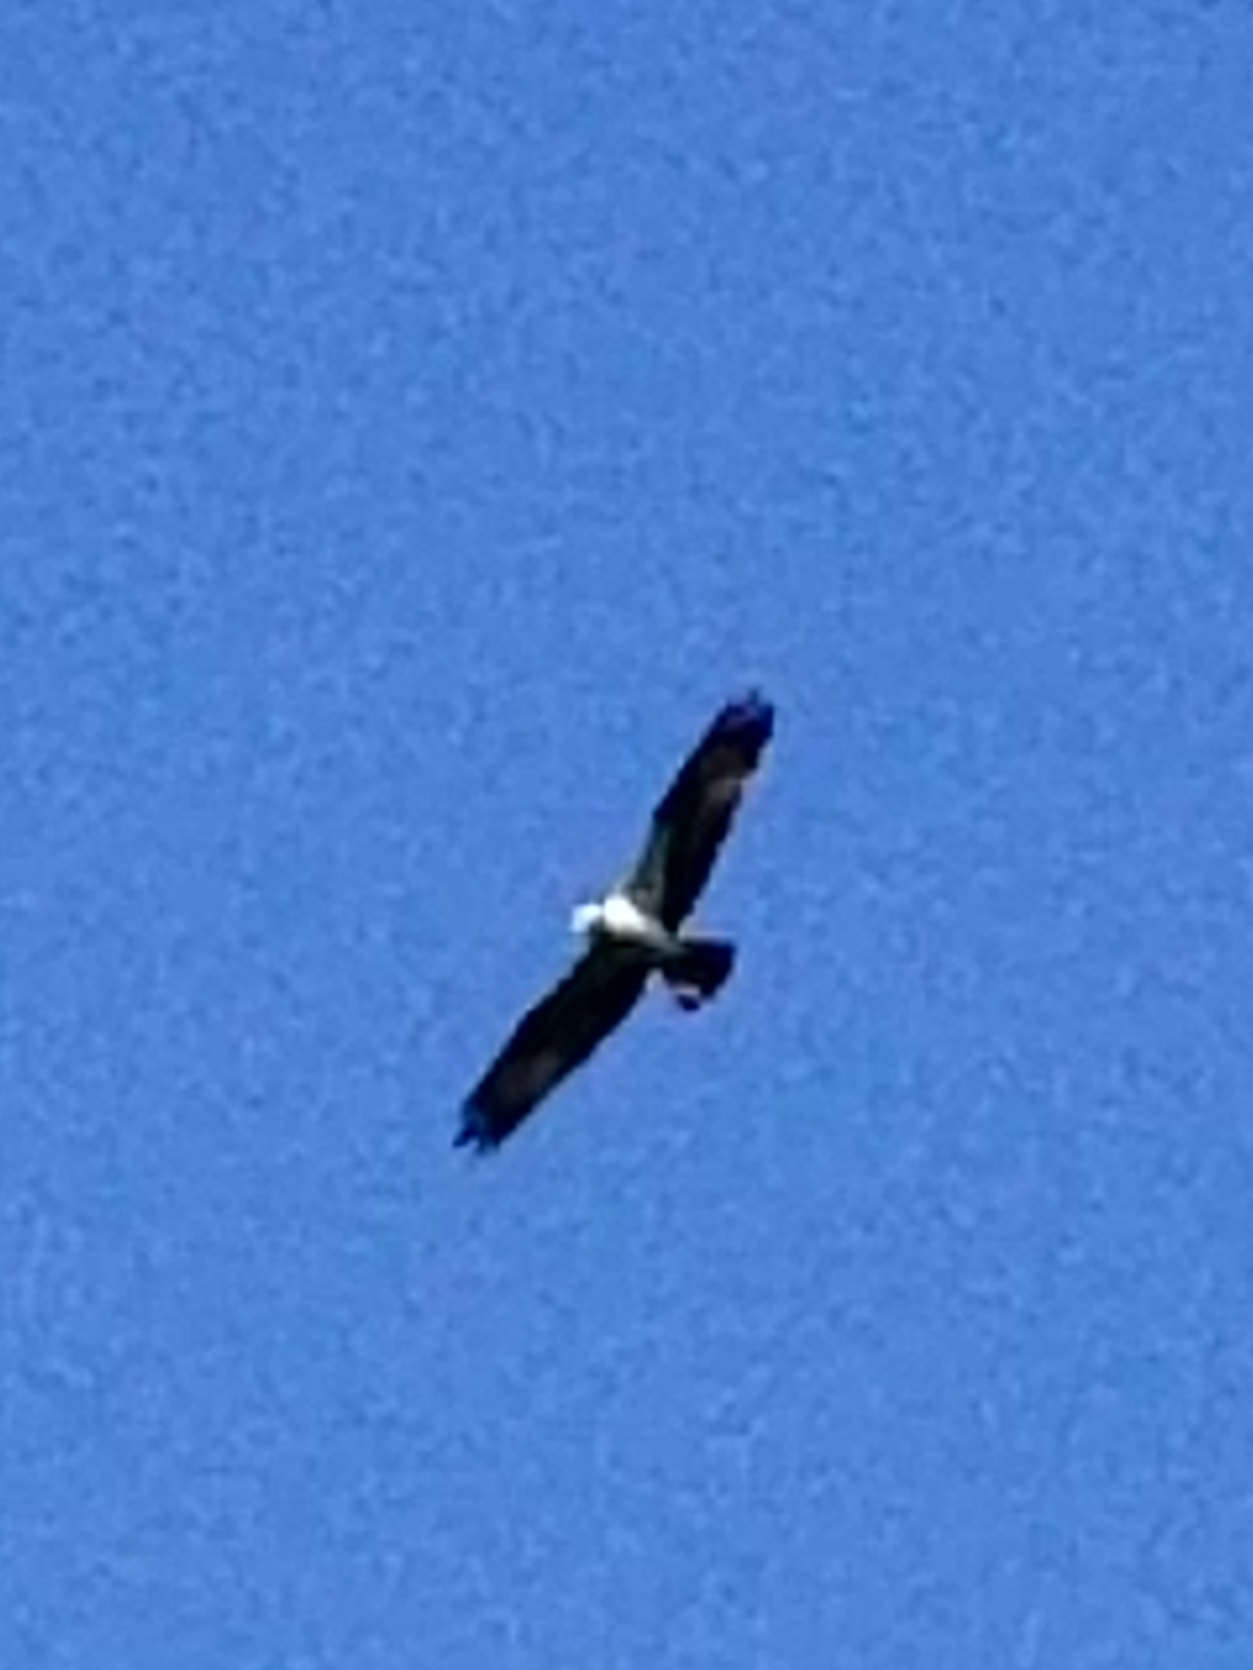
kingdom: Animalia
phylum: Chordata
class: Aves
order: Accipitriformes
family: Pandionidae
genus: Pandion
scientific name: Pandion haliaetus
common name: Osprey
